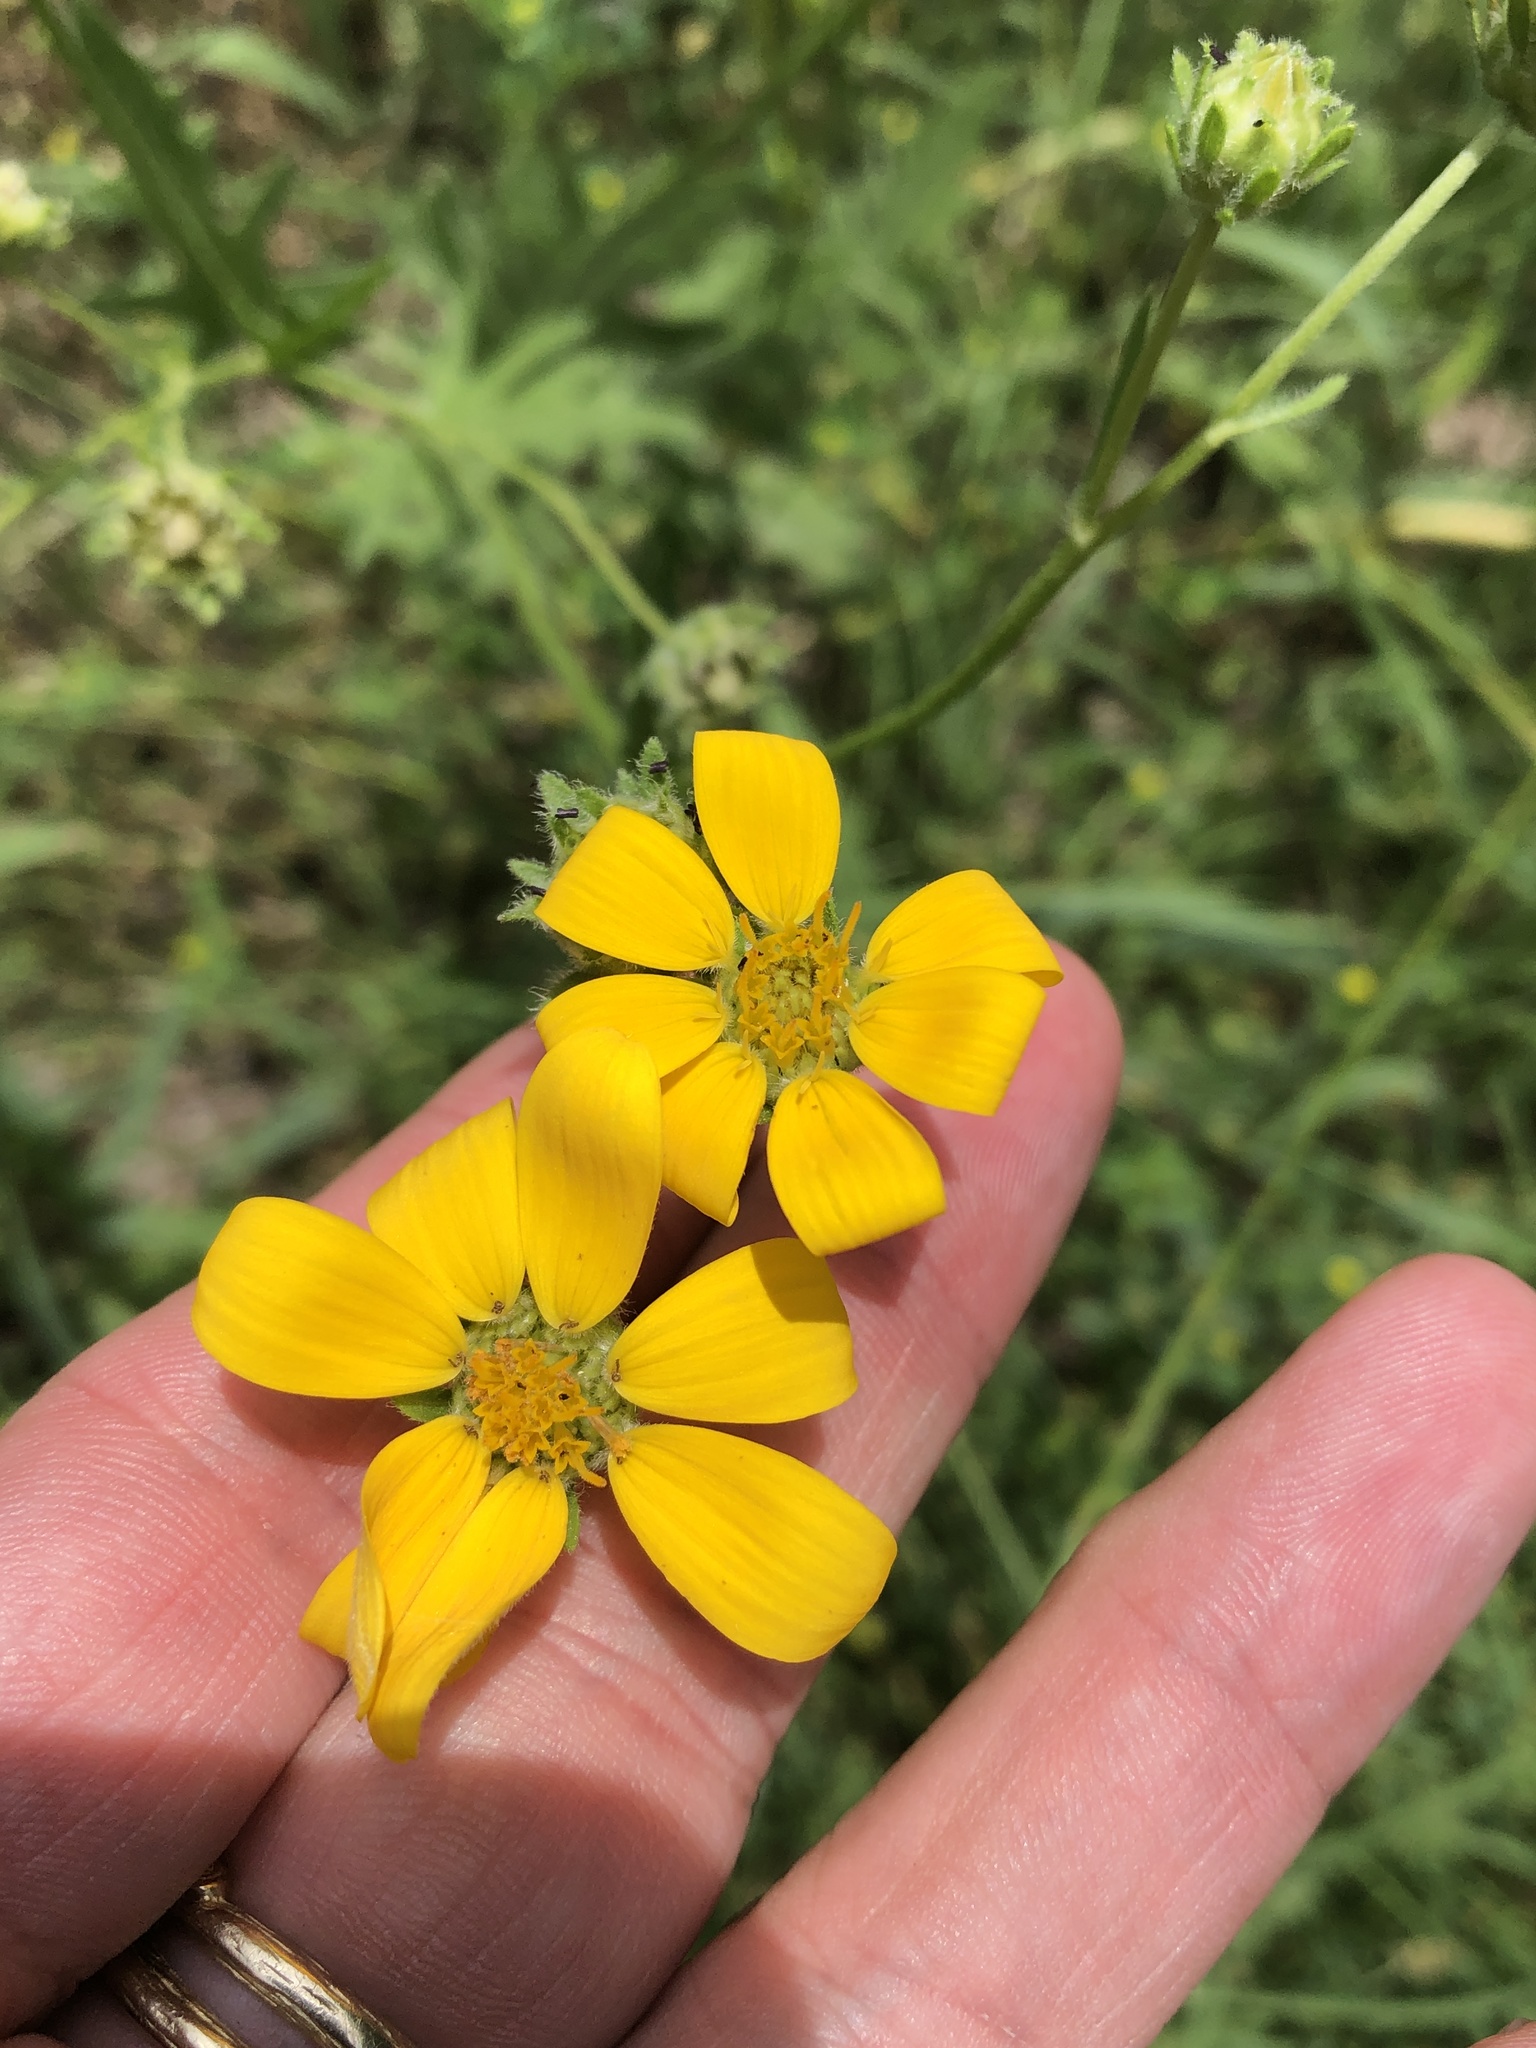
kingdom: Plantae
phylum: Tracheophyta
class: Magnoliopsida
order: Asterales
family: Asteraceae
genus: Engelmannia
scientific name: Engelmannia peristenia
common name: Engelmann's daisy
